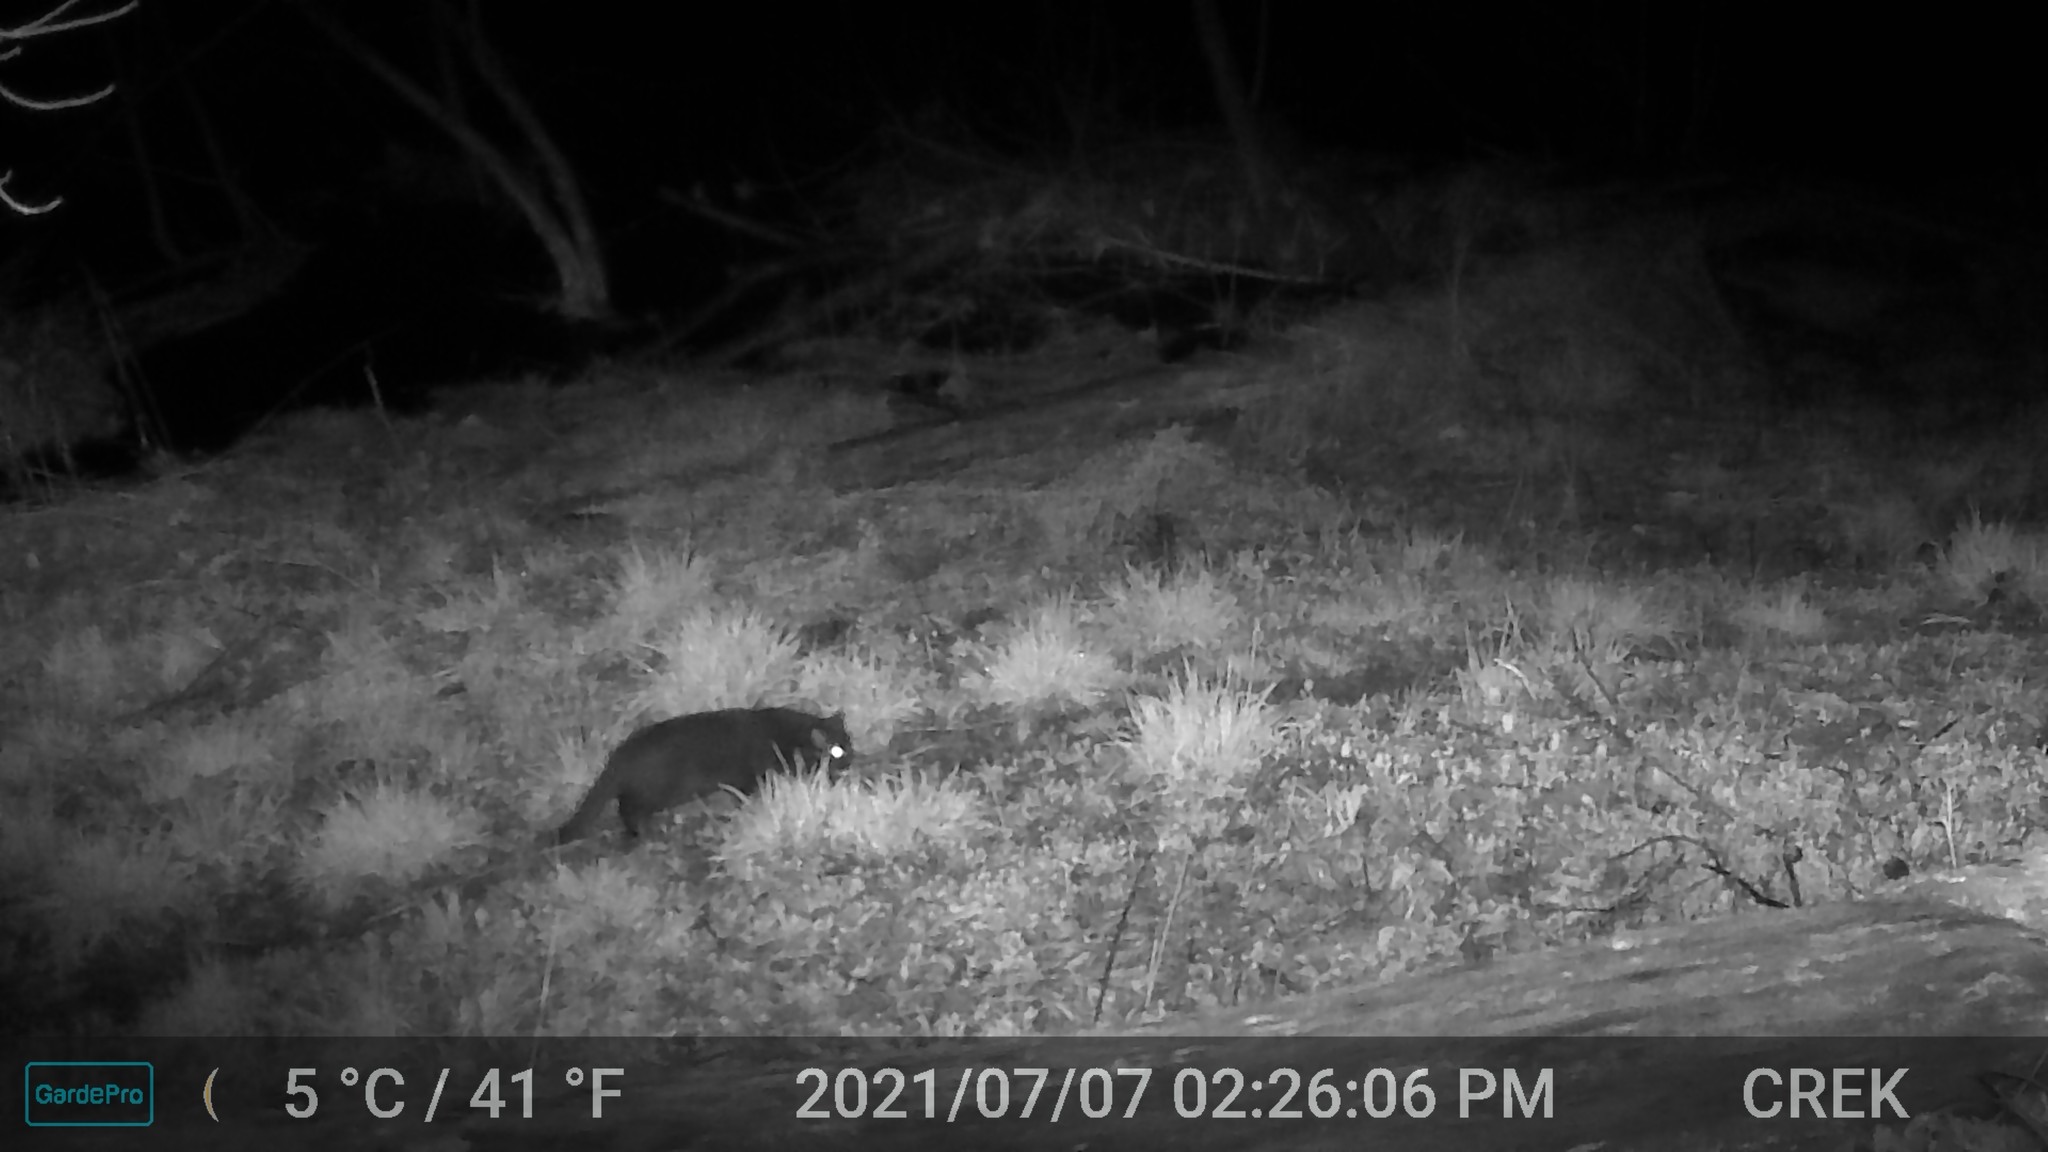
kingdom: Animalia
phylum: Chordata
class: Mammalia
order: Carnivora
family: Felidae
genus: Felis
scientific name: Felis catus
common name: Domestic cat
